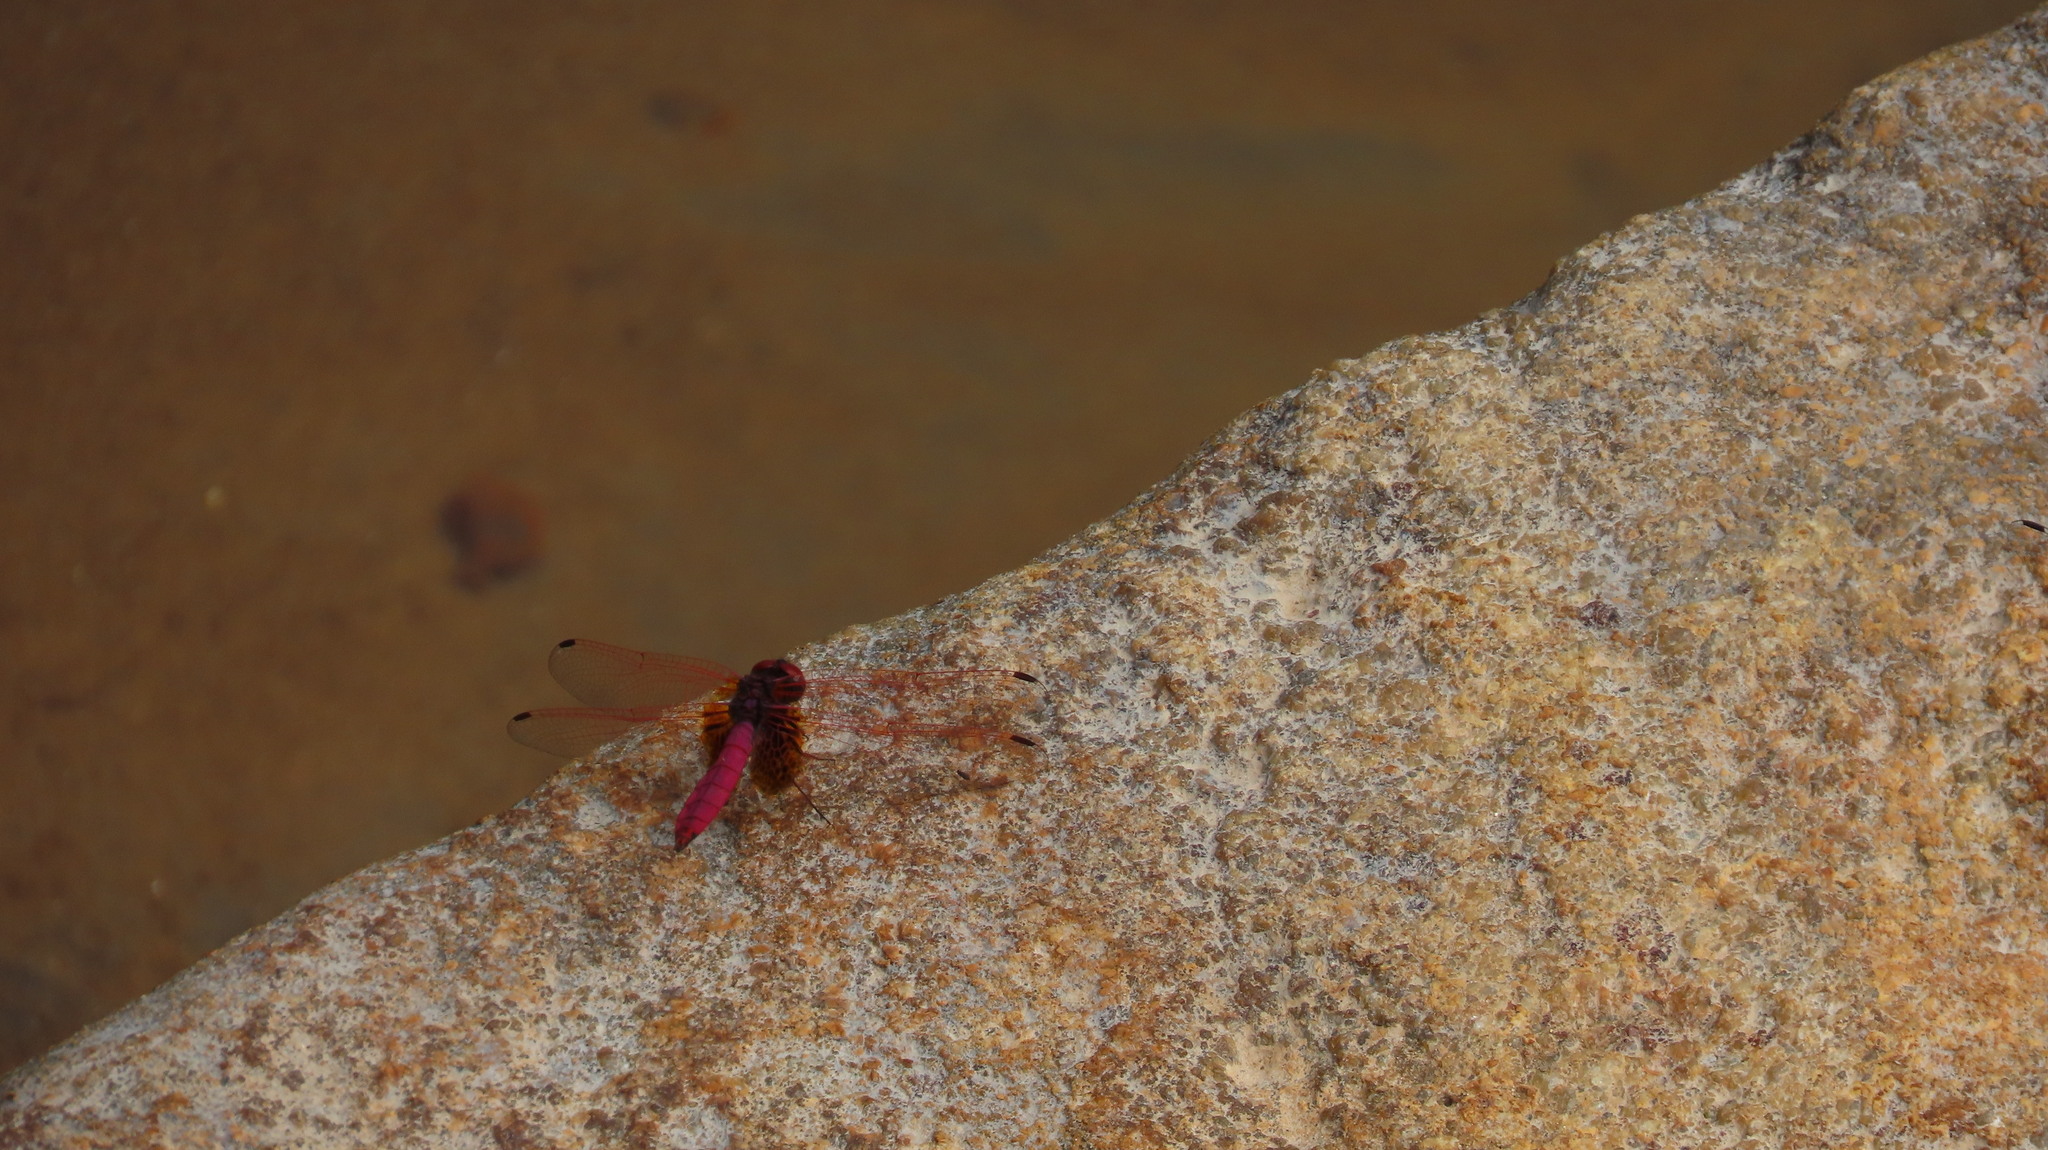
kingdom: Animalia
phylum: Arthropoda
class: Insecta
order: Odonata
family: Libellulidae
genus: Trithemis
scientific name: Trithemis aurora
